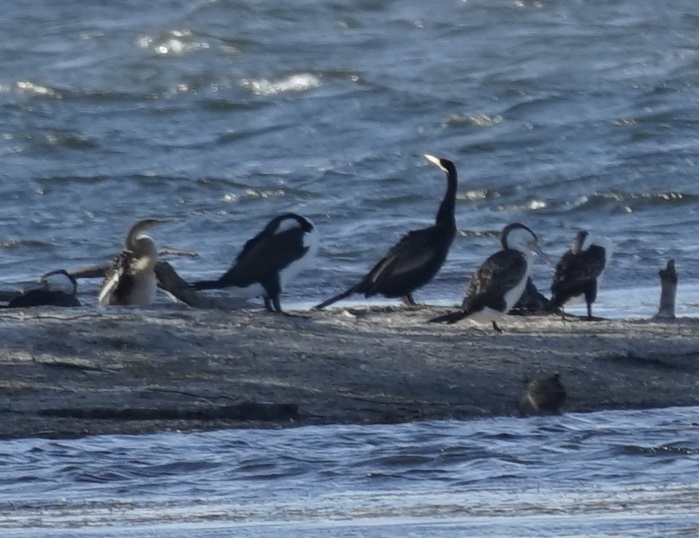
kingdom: Animalia
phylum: Chordata
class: Aves
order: Suliformes
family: Phalacrocoracidae
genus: Phalacrocorax
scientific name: Phalacrocorax varius
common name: Pied cormorant
